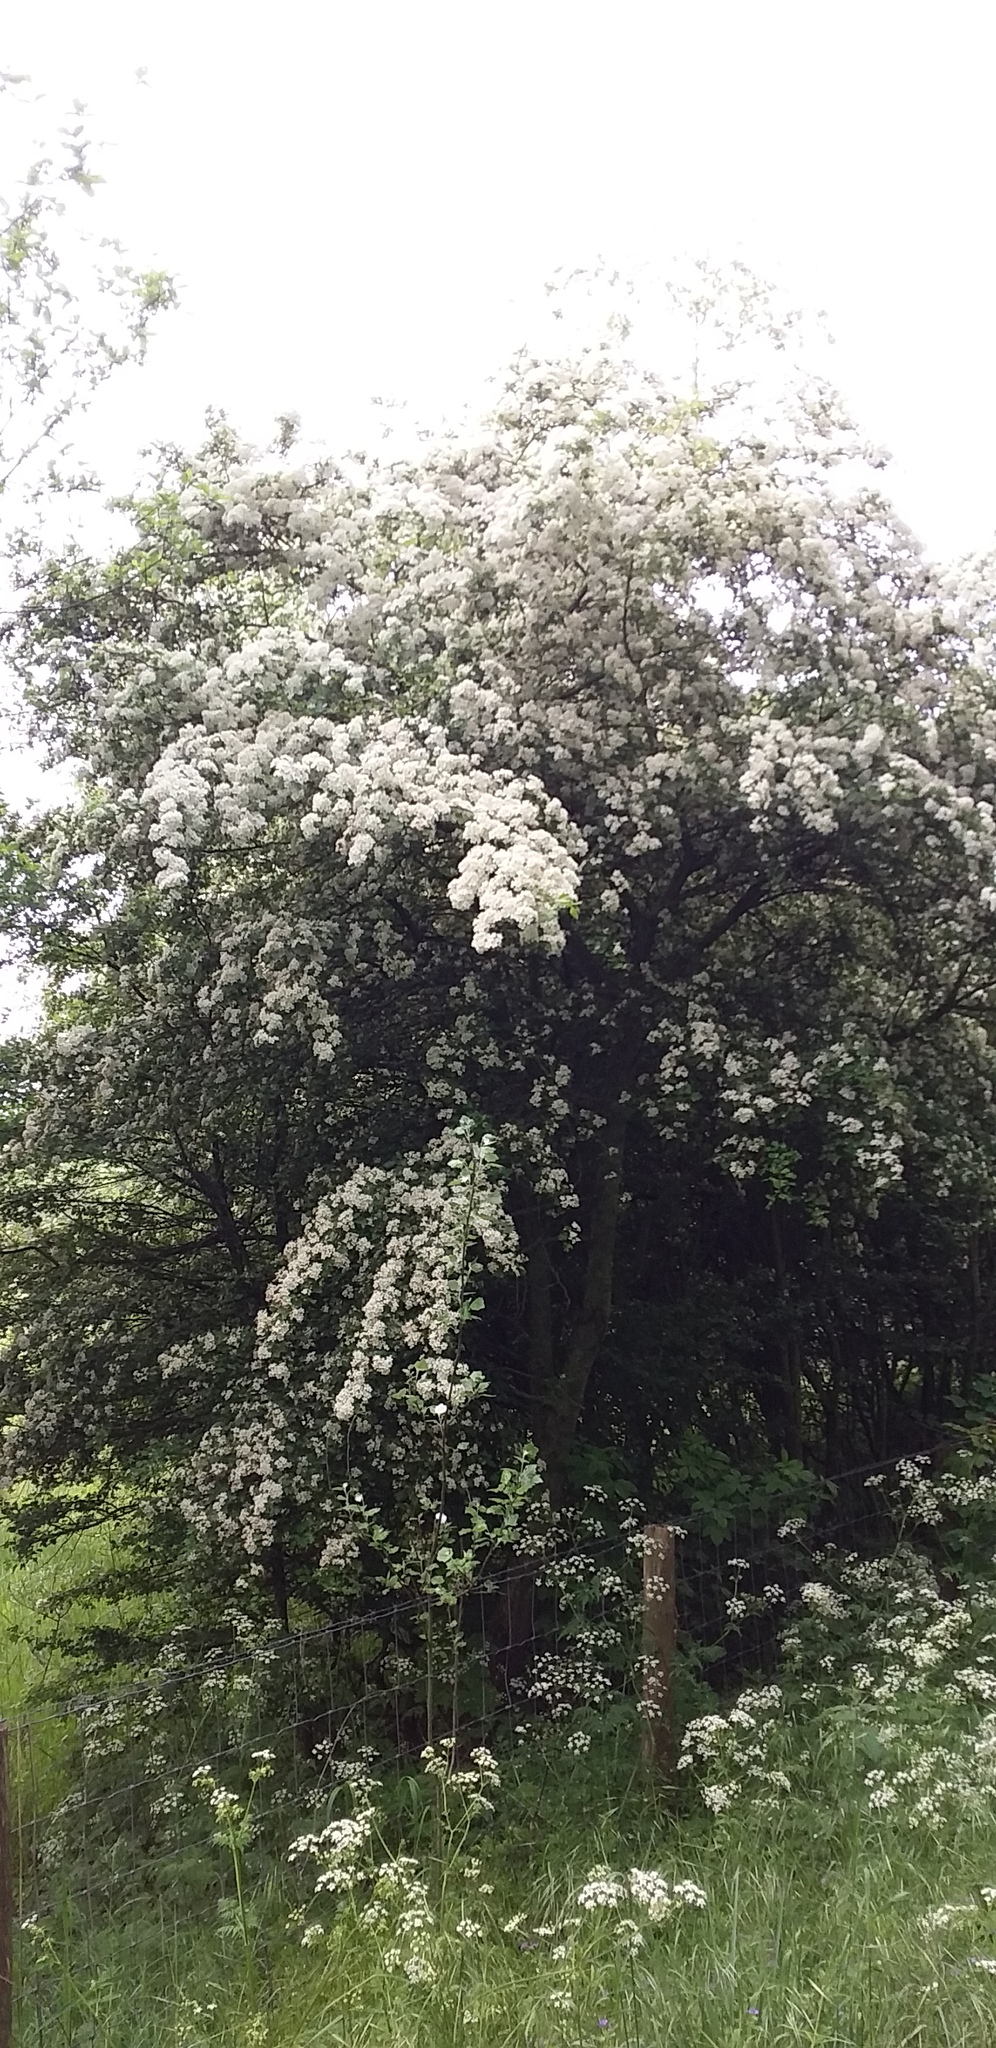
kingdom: Plantae
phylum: Tracheophyta
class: Magnoliopsida
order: Rosales
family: Rosaceae
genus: Crataegus
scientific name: Crataegus monogyna
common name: Hawthorn
